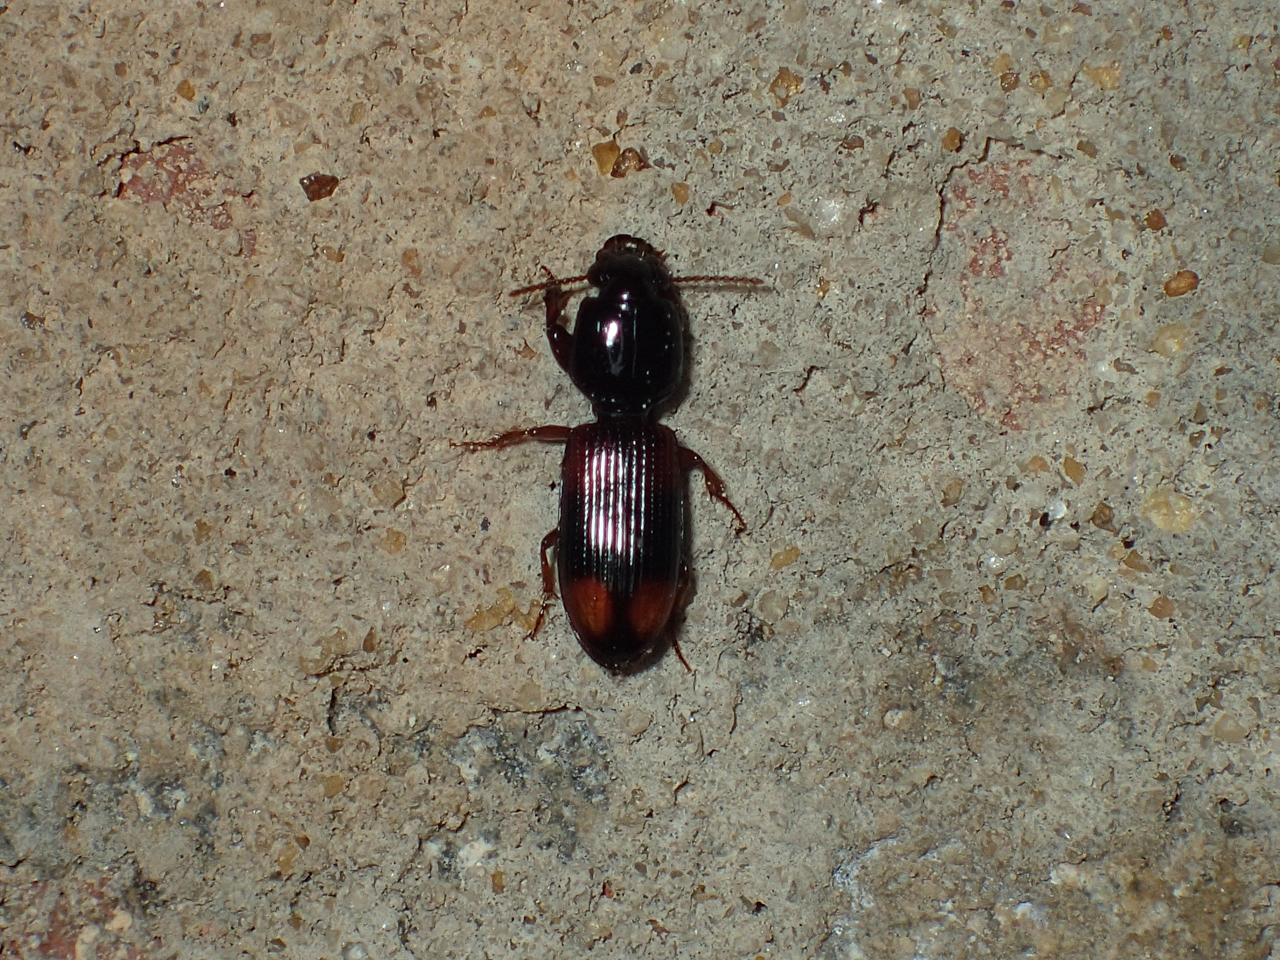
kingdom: Animalia
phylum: Arthropoda
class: Insecta
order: Coleoptera
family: Carabidae
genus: Clivina
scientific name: Clivina bipustulata
